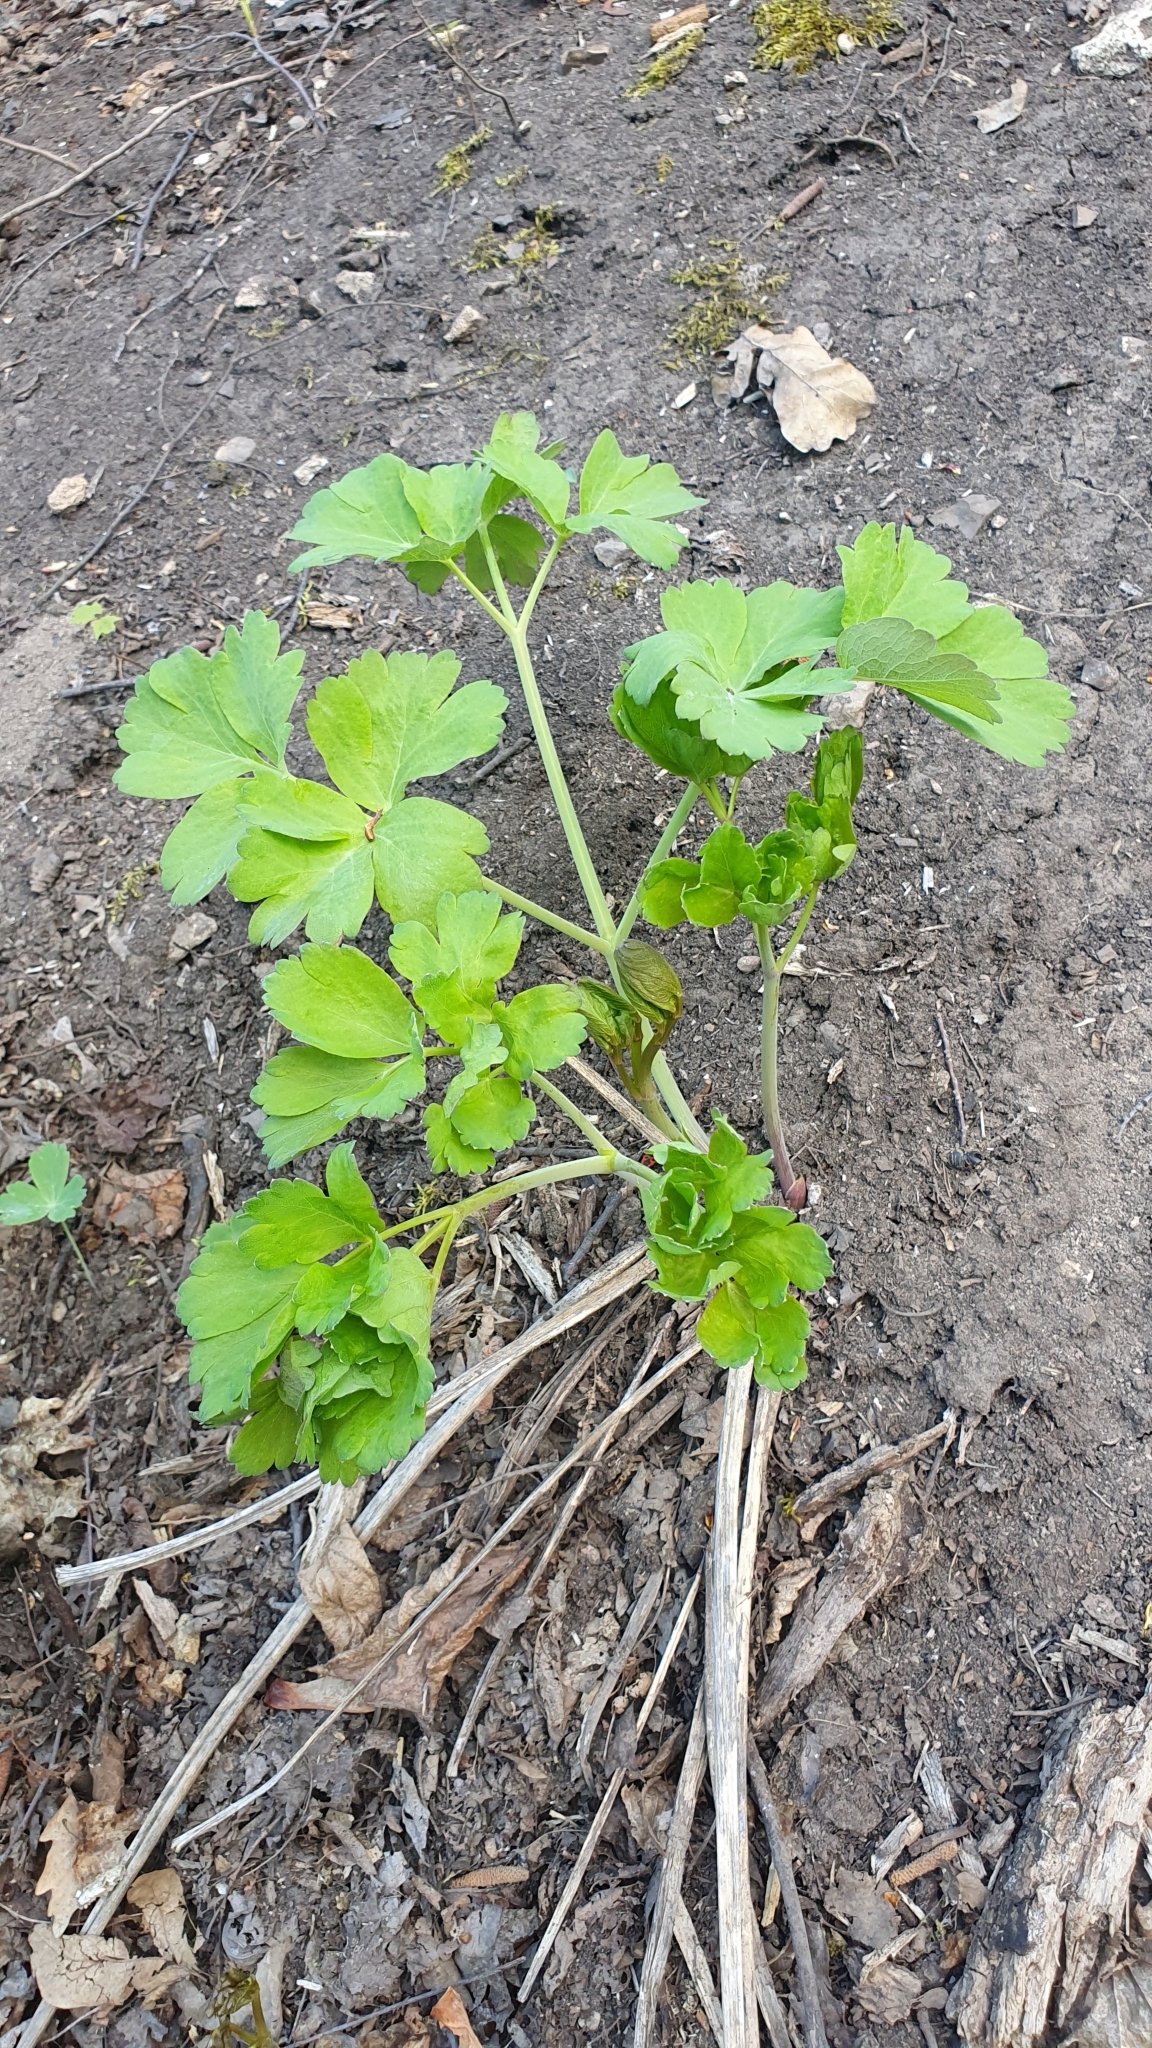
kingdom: Plantae
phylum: Tracheophyta
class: Magnoliopsida
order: Apiales
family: Apiaceae
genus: Laser
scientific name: Laser trilobum
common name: Laser
